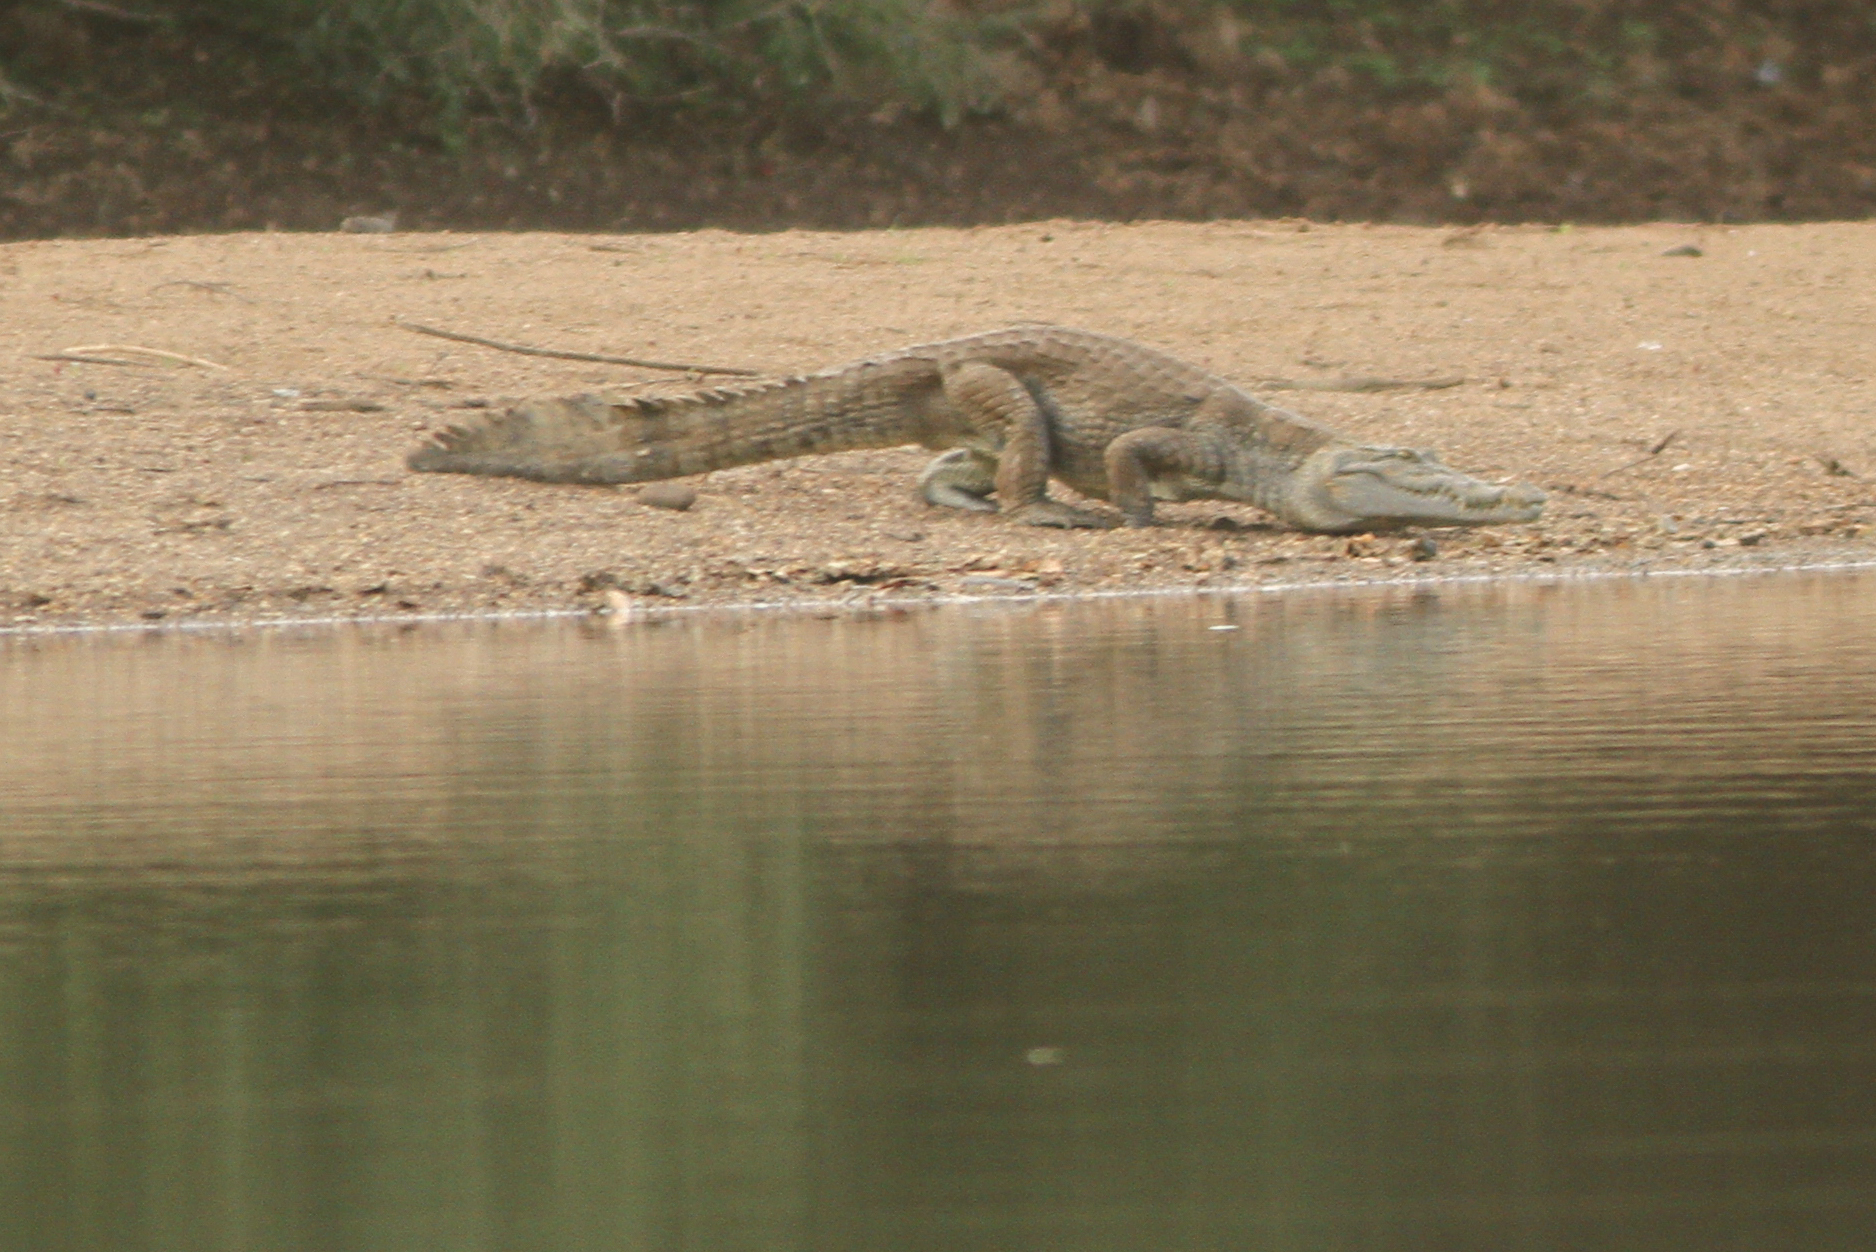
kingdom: Animalia
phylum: Chordata
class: Crocodylia
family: Crocodylidae
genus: Crocodylus
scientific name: Crocodylus suchus
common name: West african crocodile
